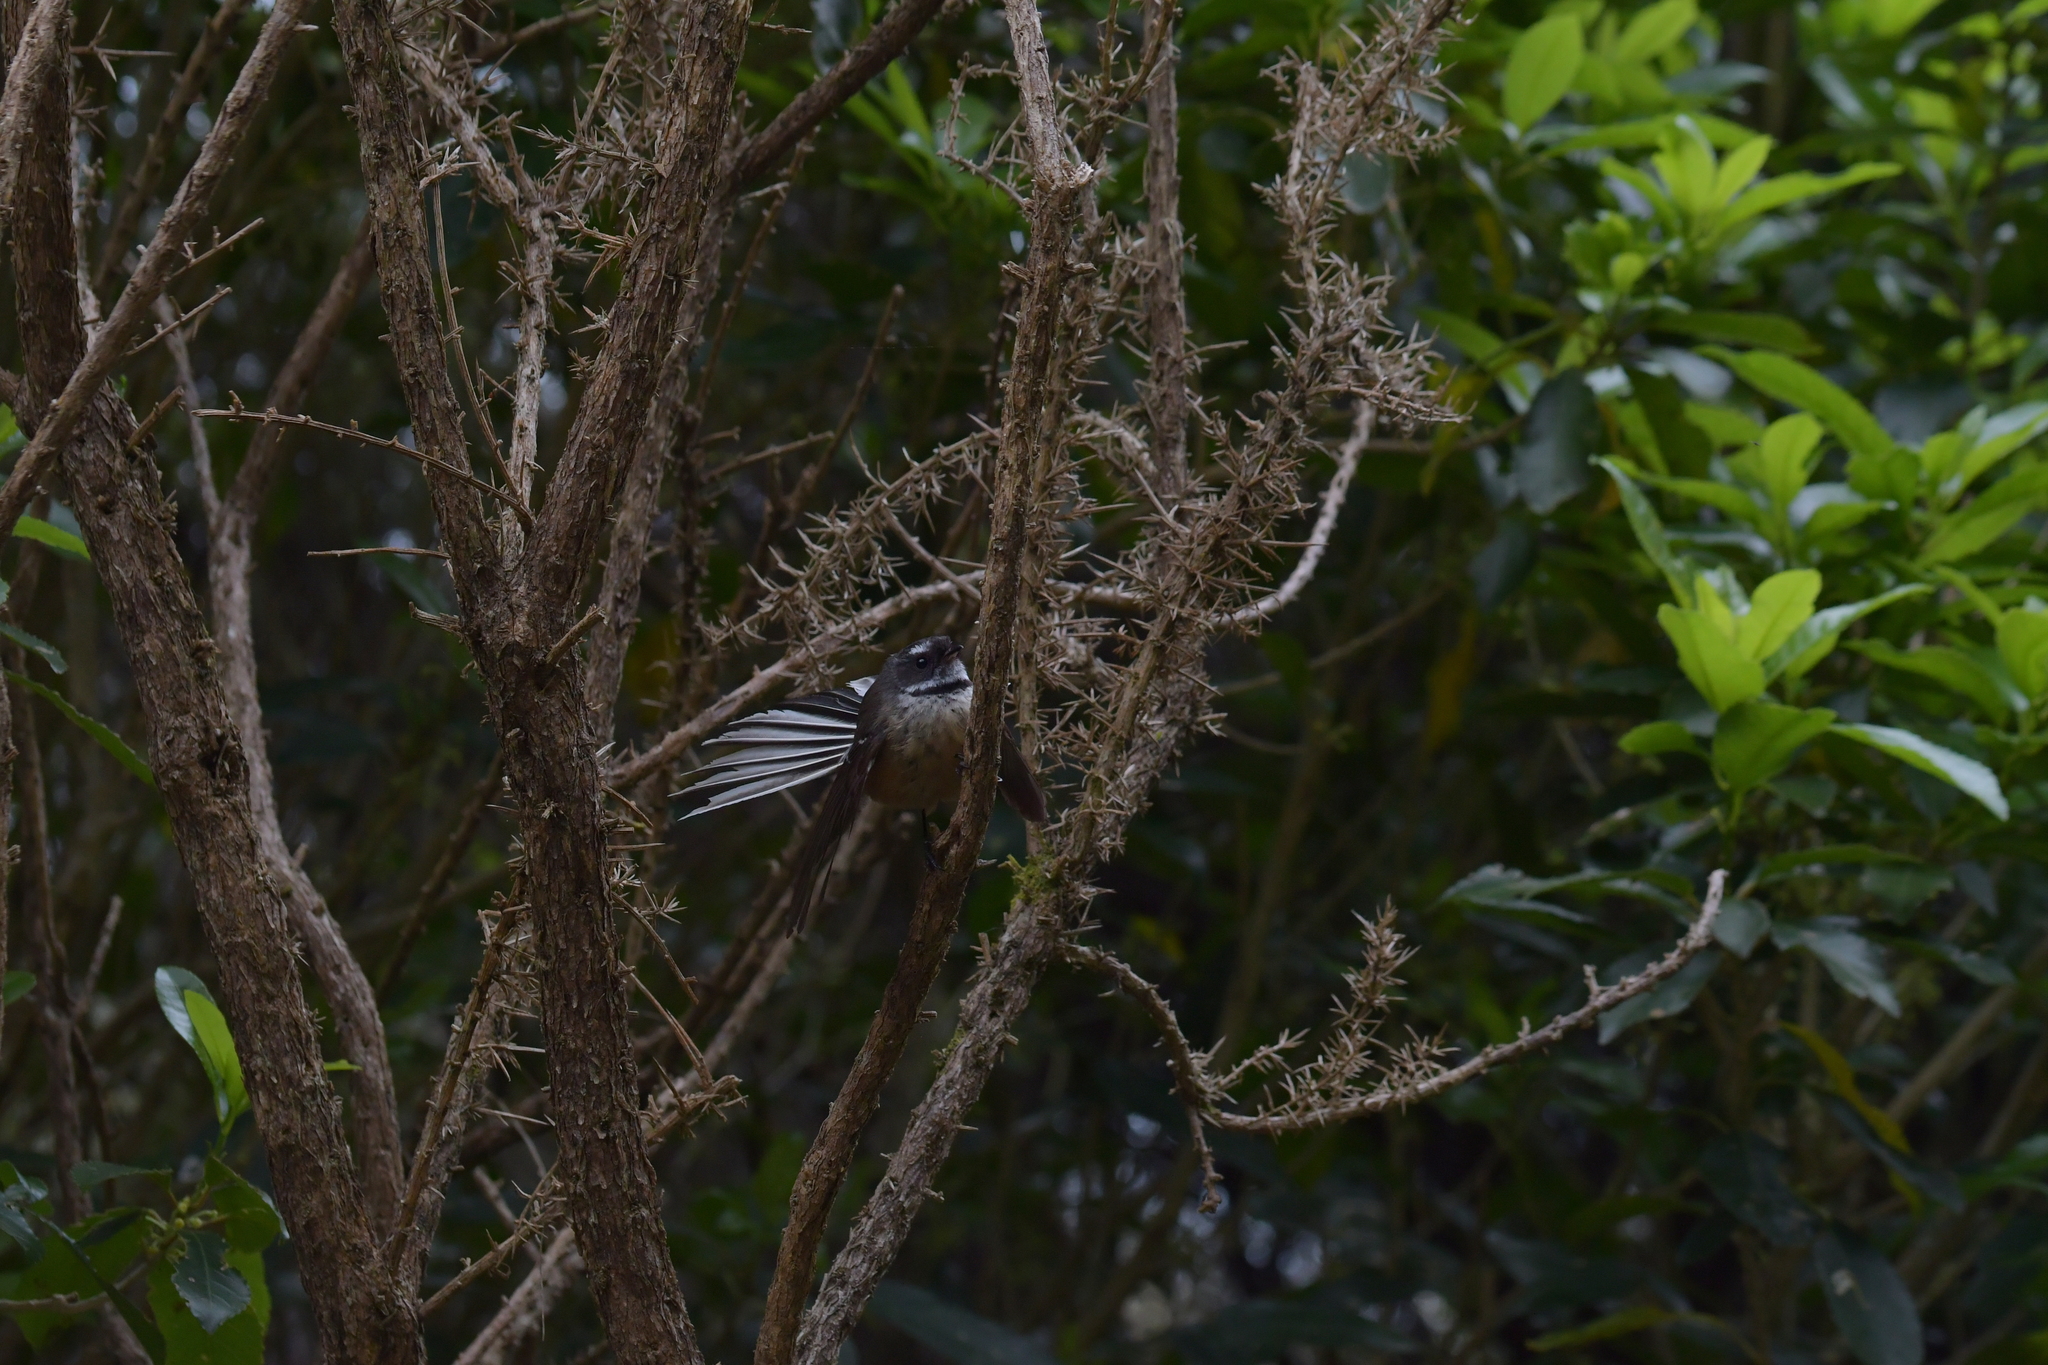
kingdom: Animalia
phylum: Chordata
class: Aves
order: Passeriformes
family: Rhipiduridae
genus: Rhipidura
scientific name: Rhipidura fuliginosa
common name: New zealand fantail
